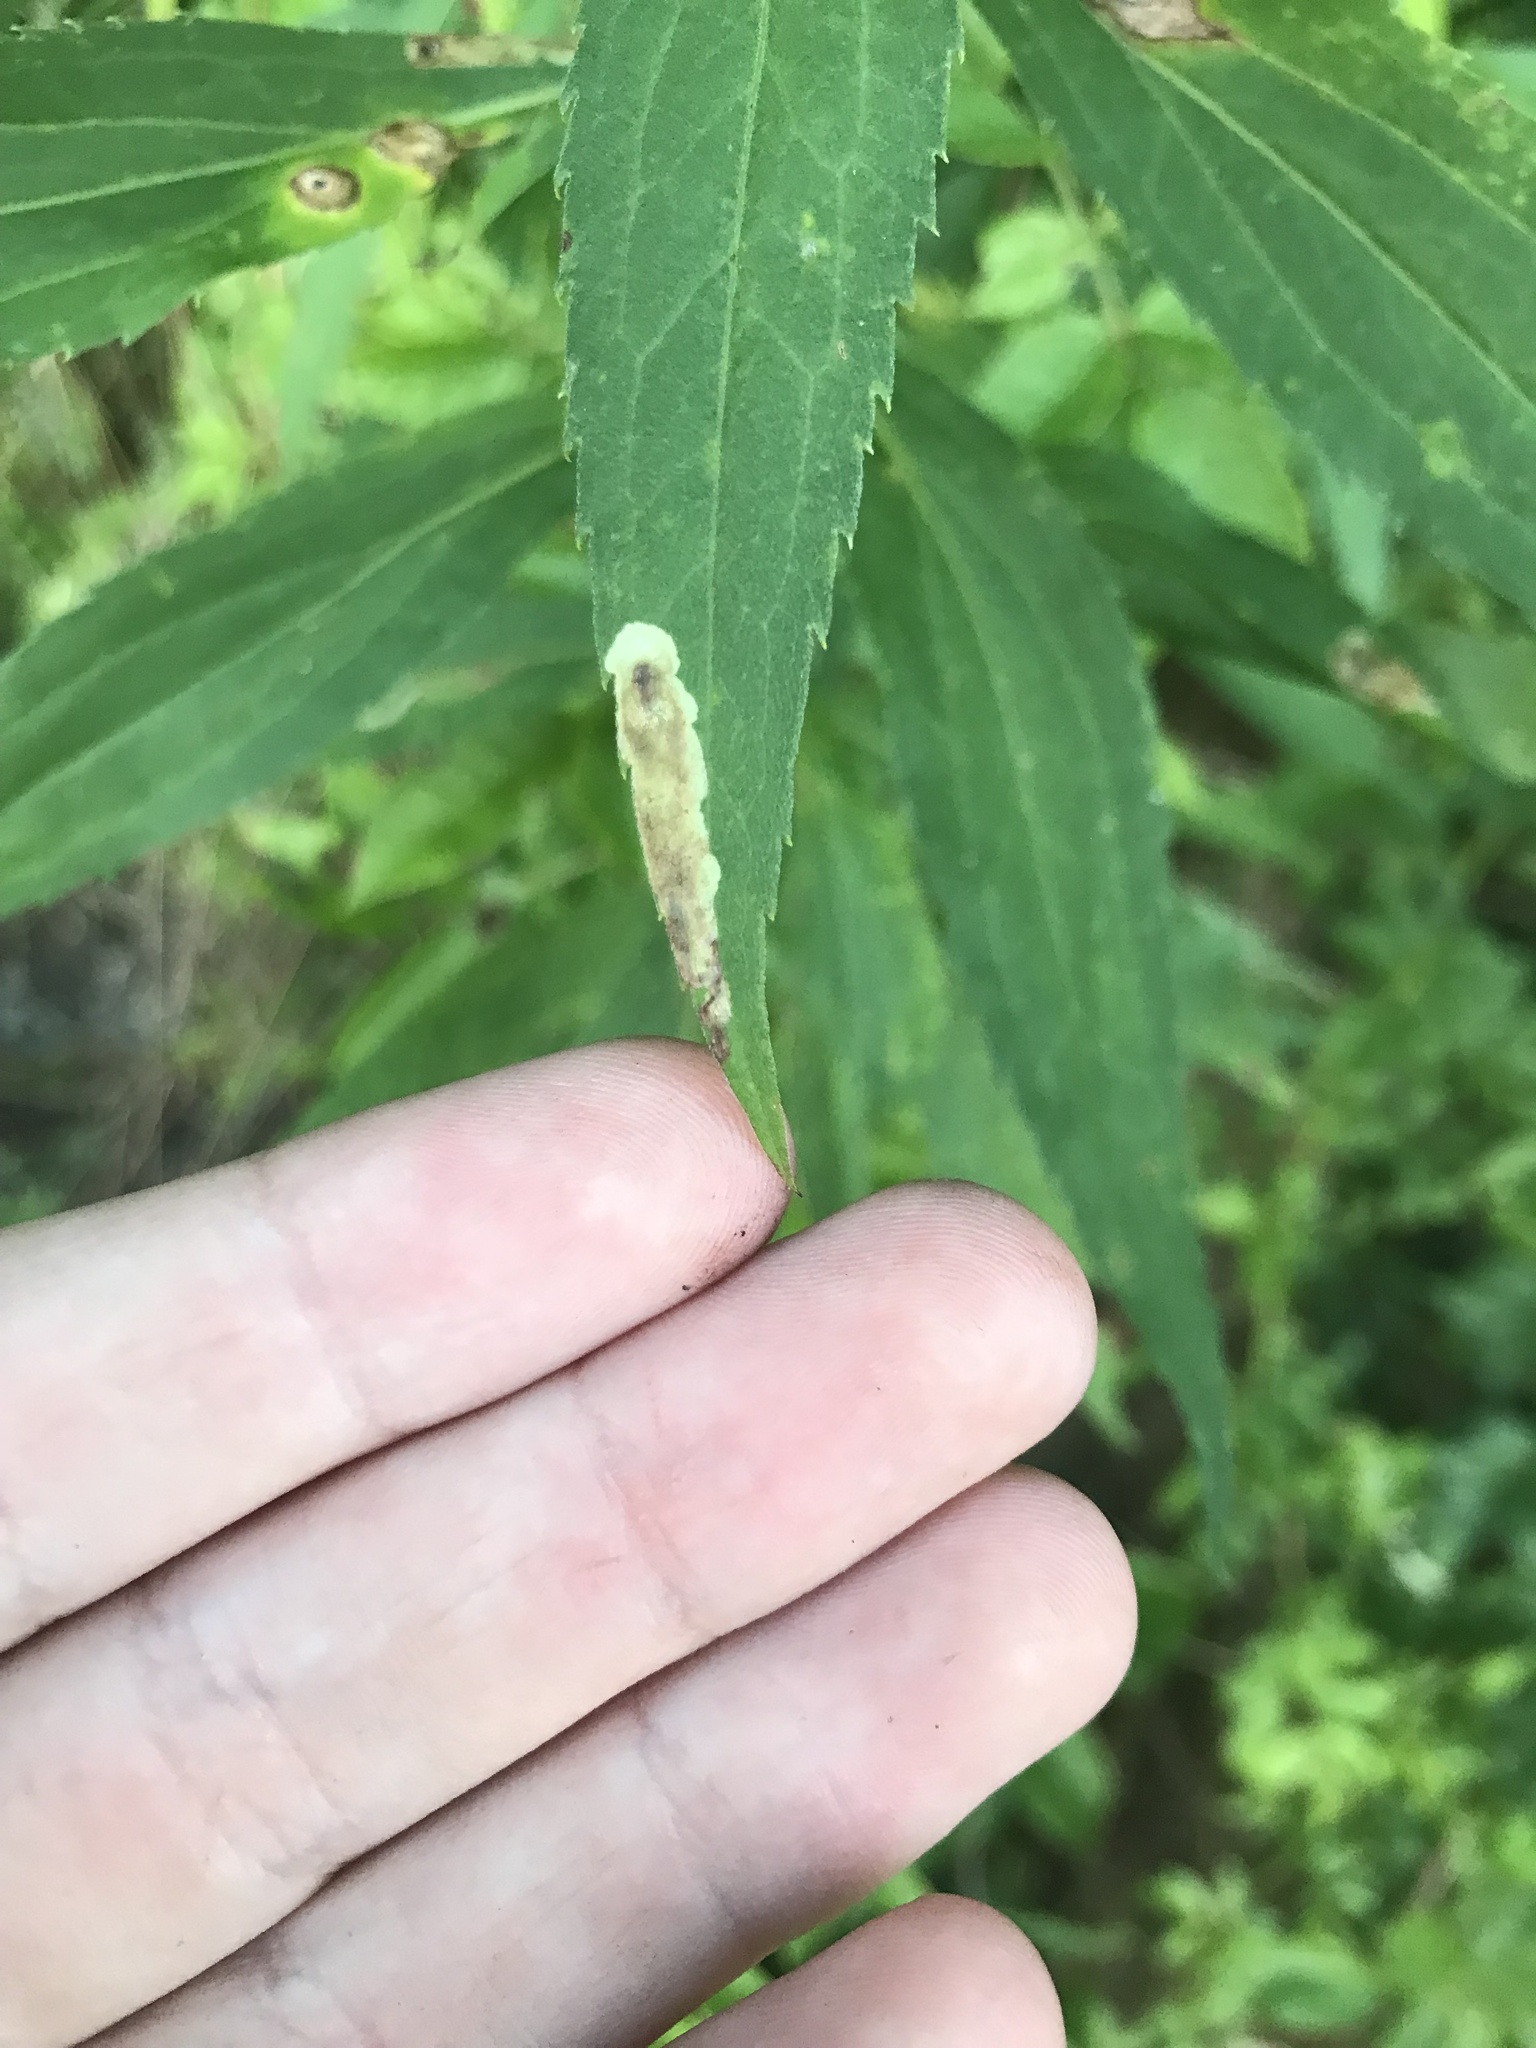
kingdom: Animalia
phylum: Arthropoda
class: Insecta
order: Diptera
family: Agromyzidae
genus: Calycomyza
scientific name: Calycomyza solidaginis
